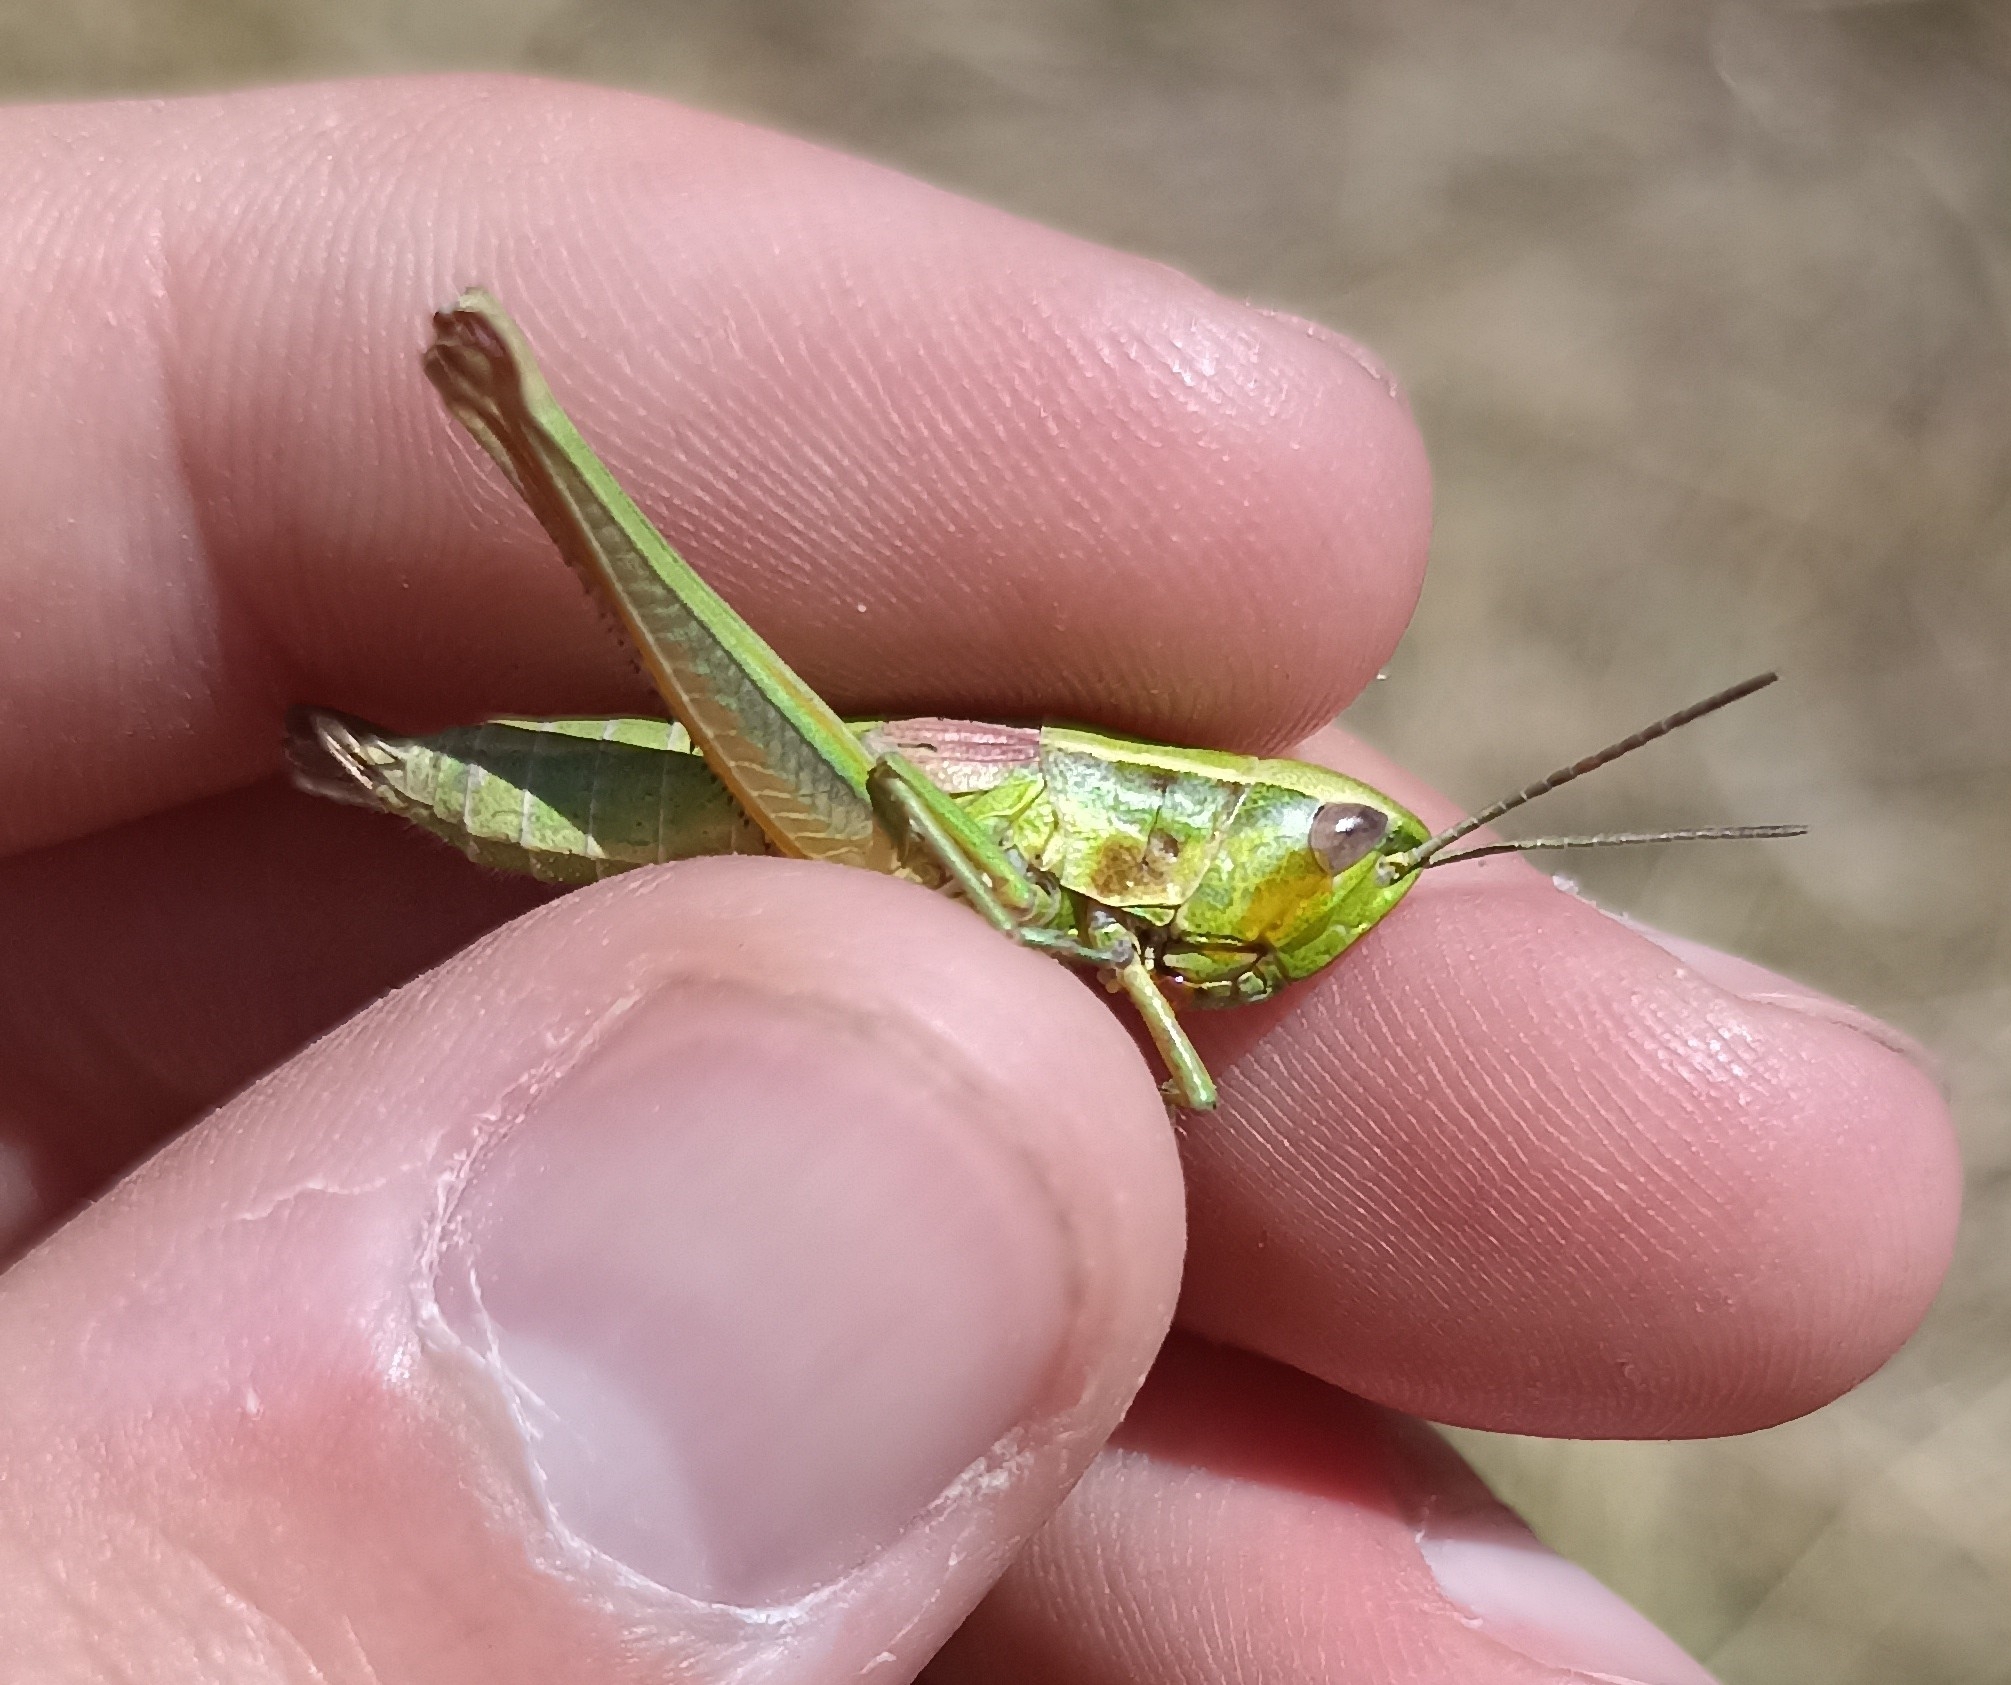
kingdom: Animalia
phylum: Arthropoda
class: Insecta
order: Orthoptera
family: Acrididae
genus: Euthystira
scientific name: Euthystira brachyptera
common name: Small gold grasshopper
